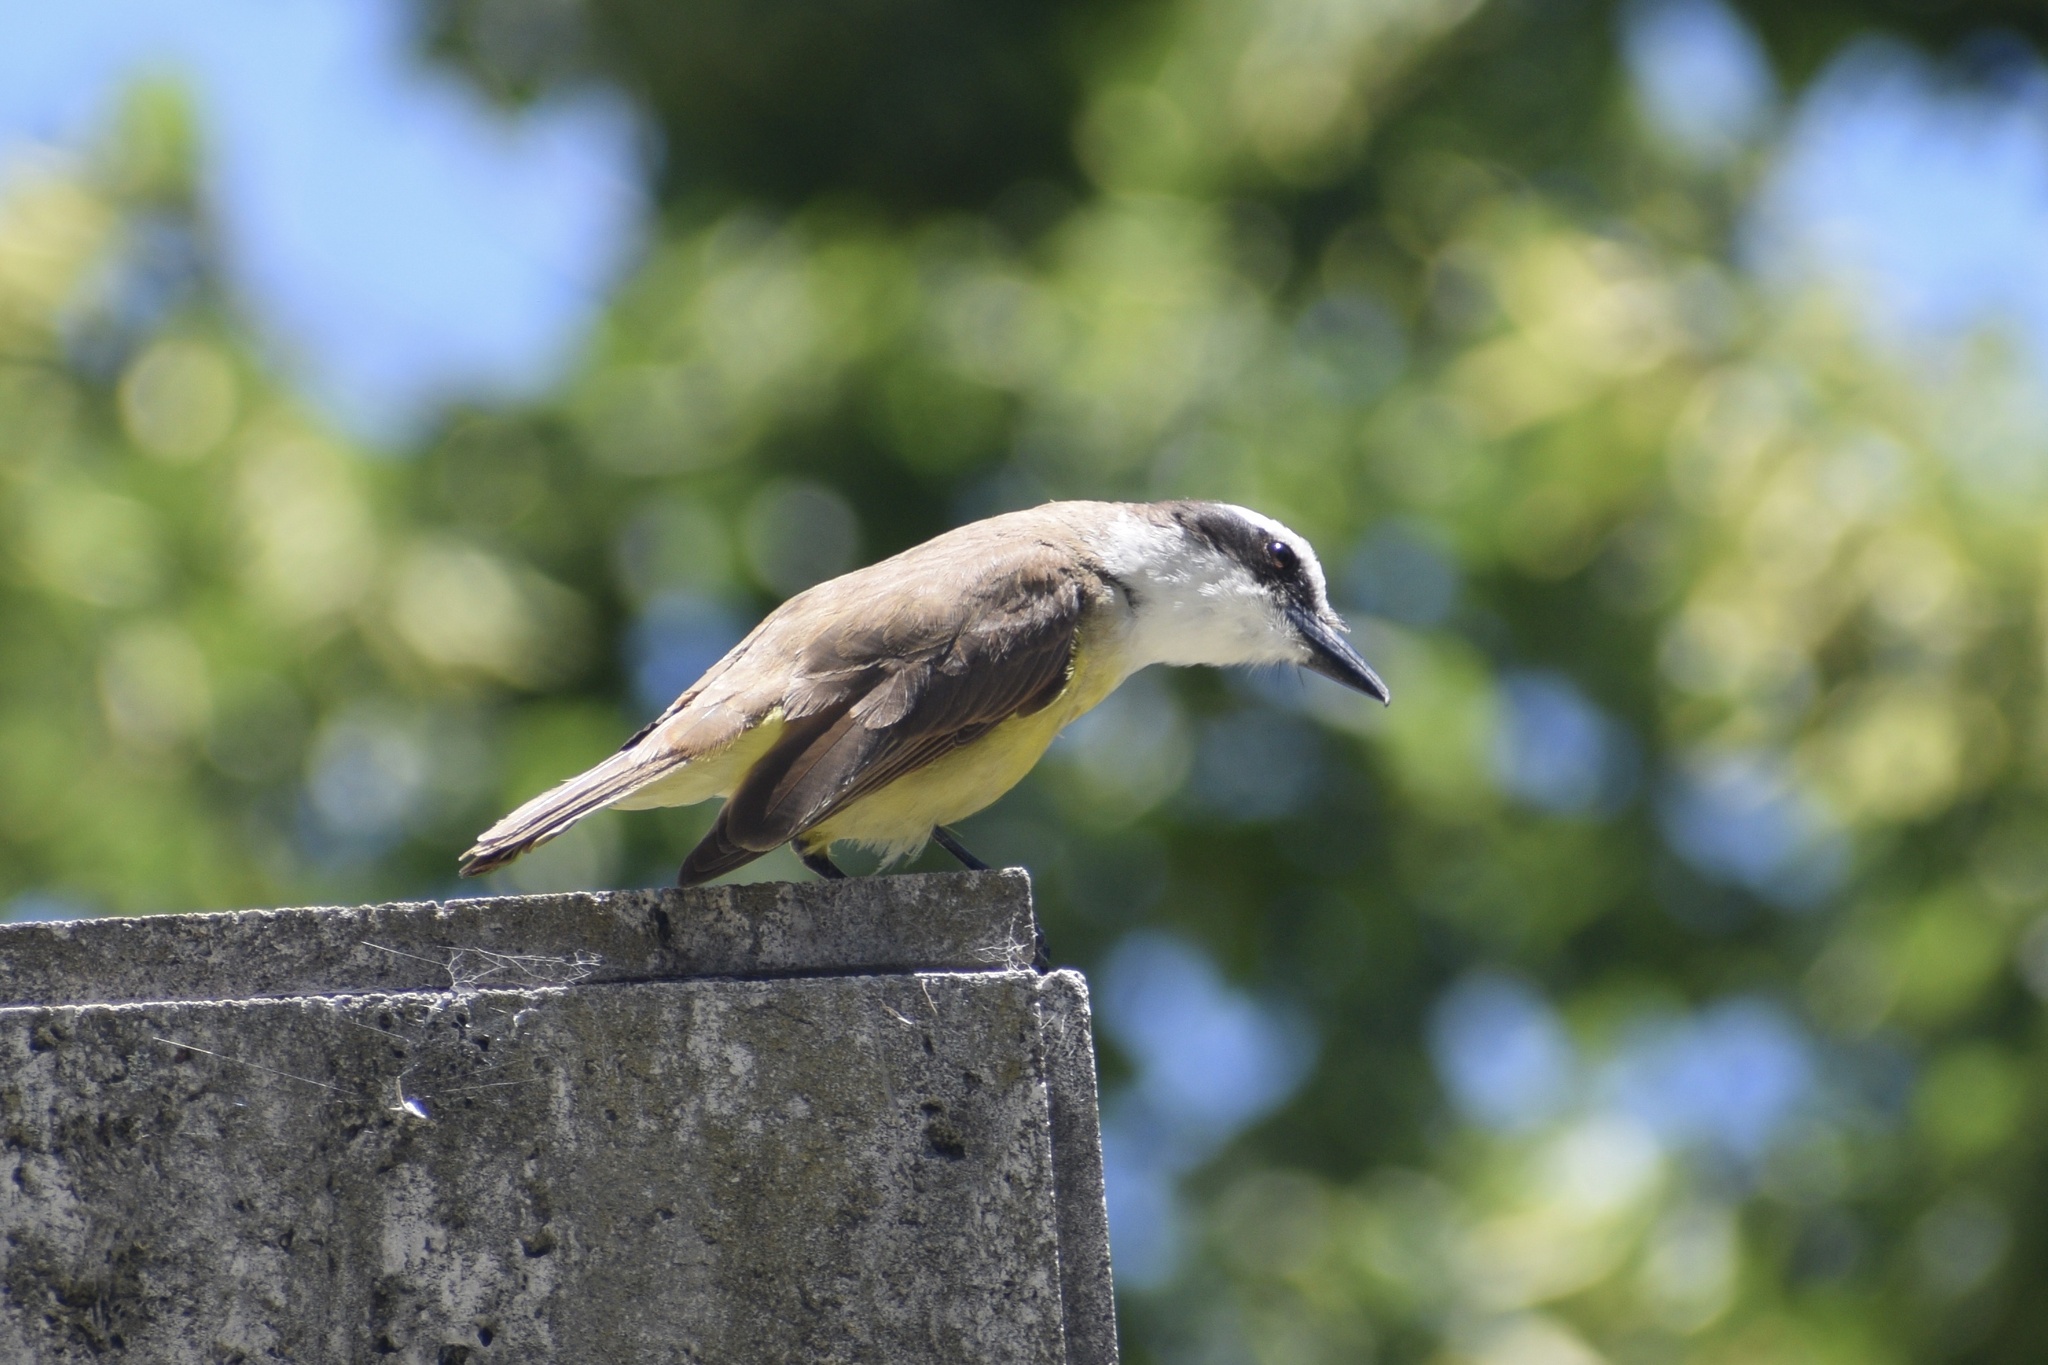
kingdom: Animalia
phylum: Chordata
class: Aves
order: Passeriformes
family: Tyrannidae
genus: Pitangus
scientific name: Pitangus sulphuratus
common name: Great kiskadee
